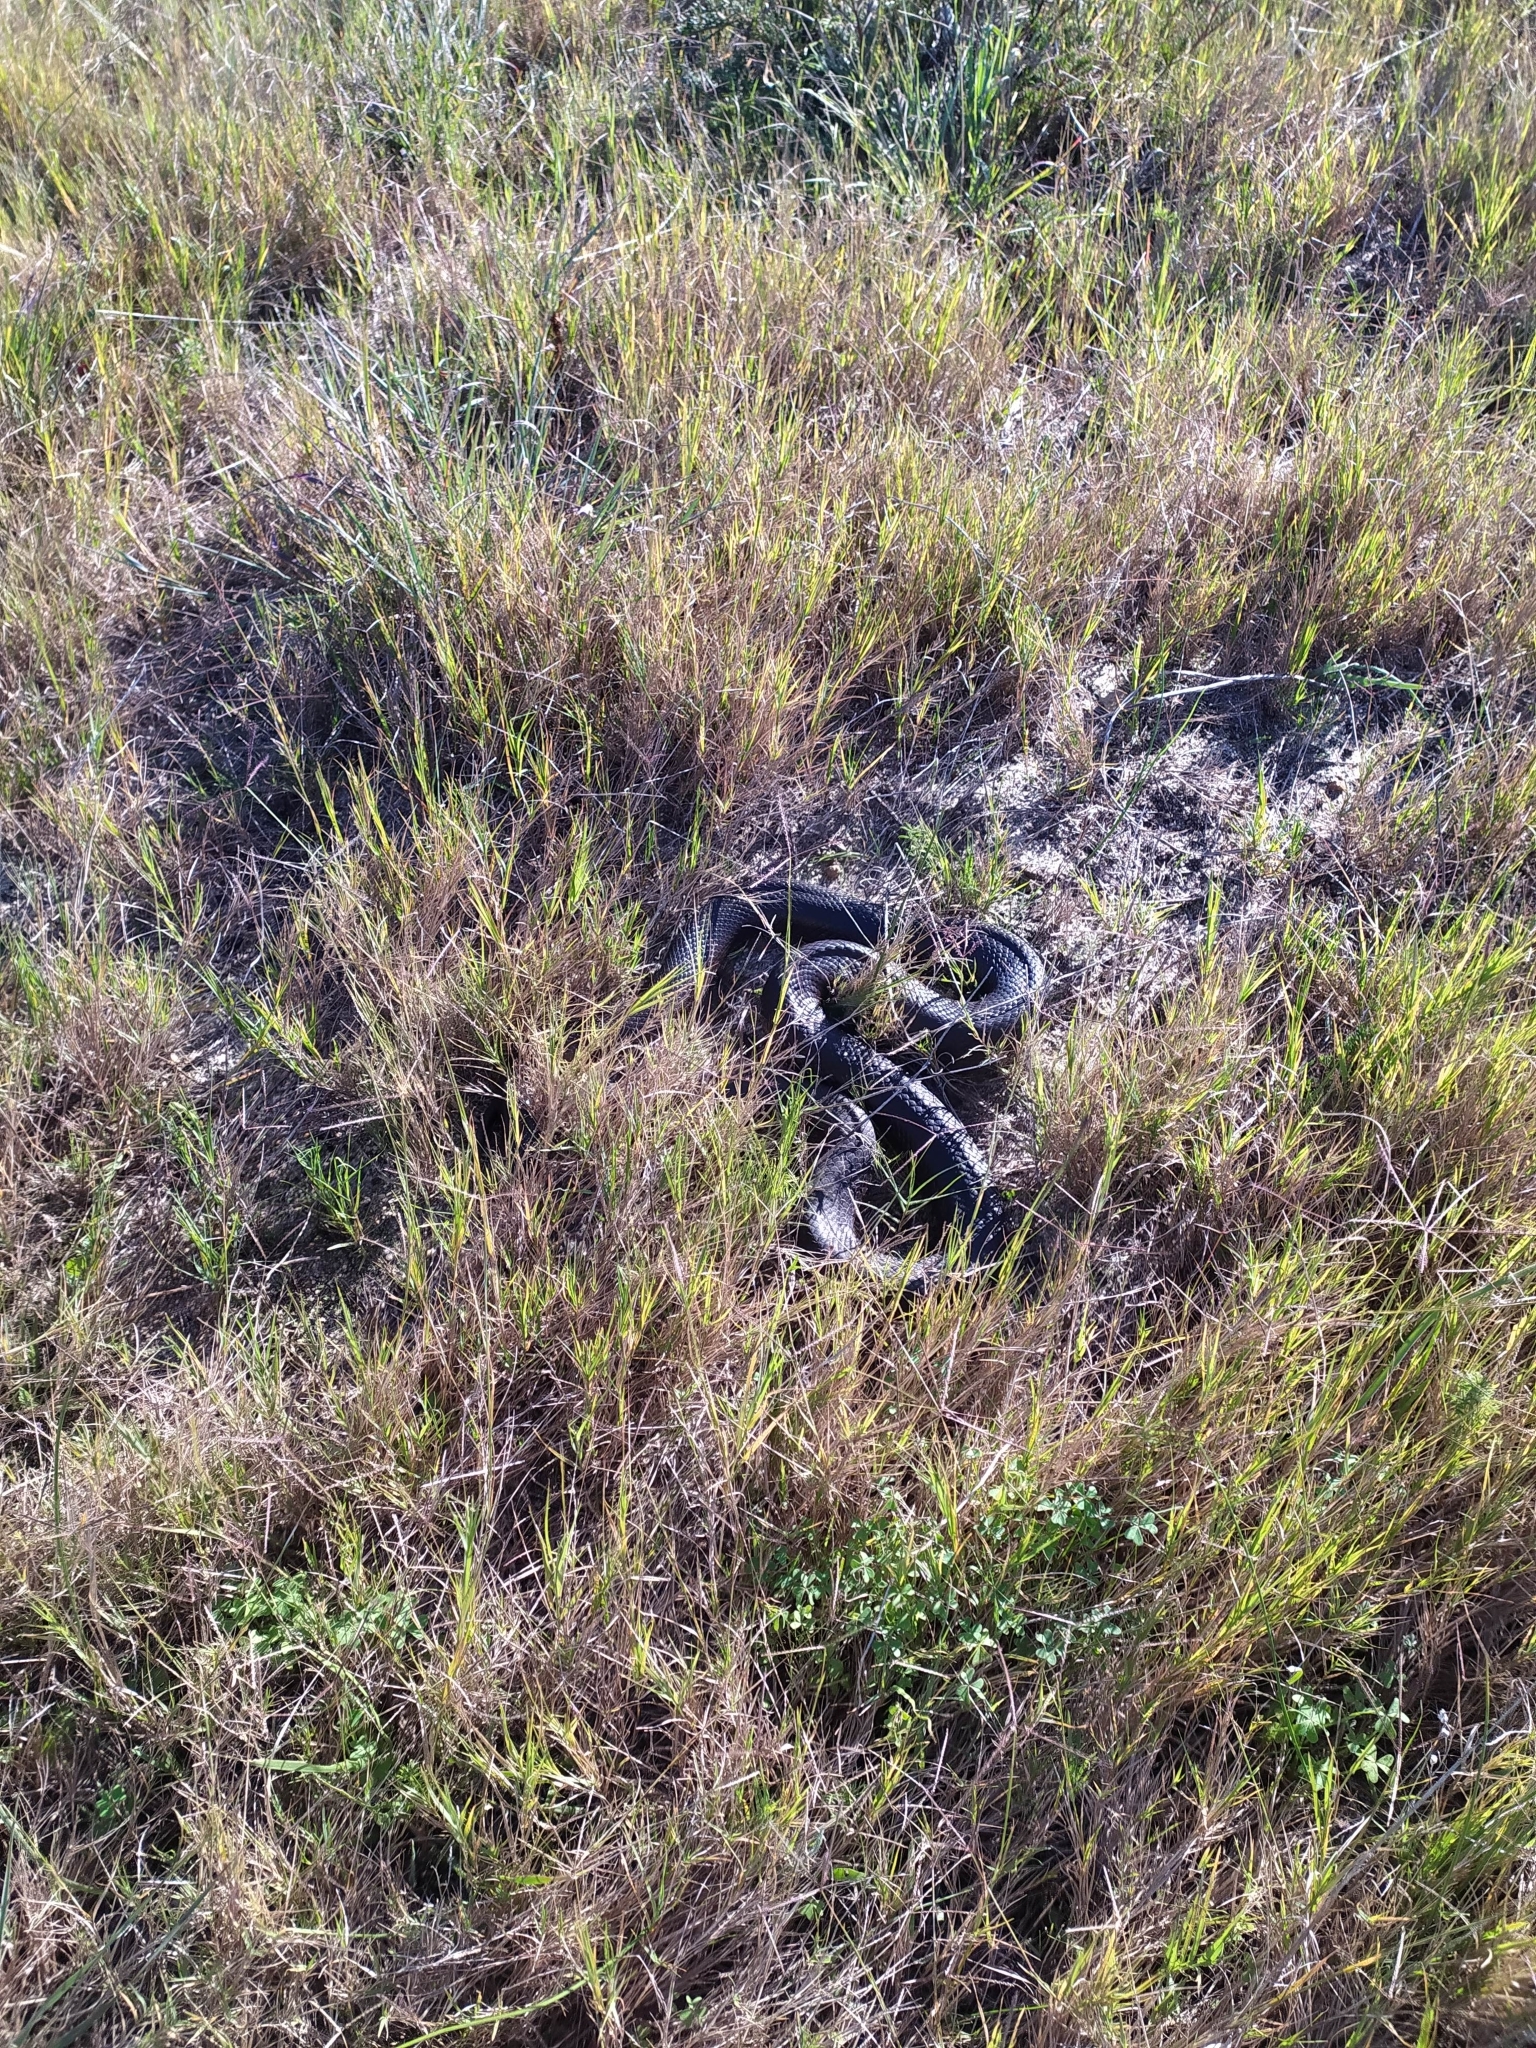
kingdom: Animalia
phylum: Chordata
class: Squamata
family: Pseudaspididae
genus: Pseudaspis
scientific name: Pseudaspis cana
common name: Mole snake
